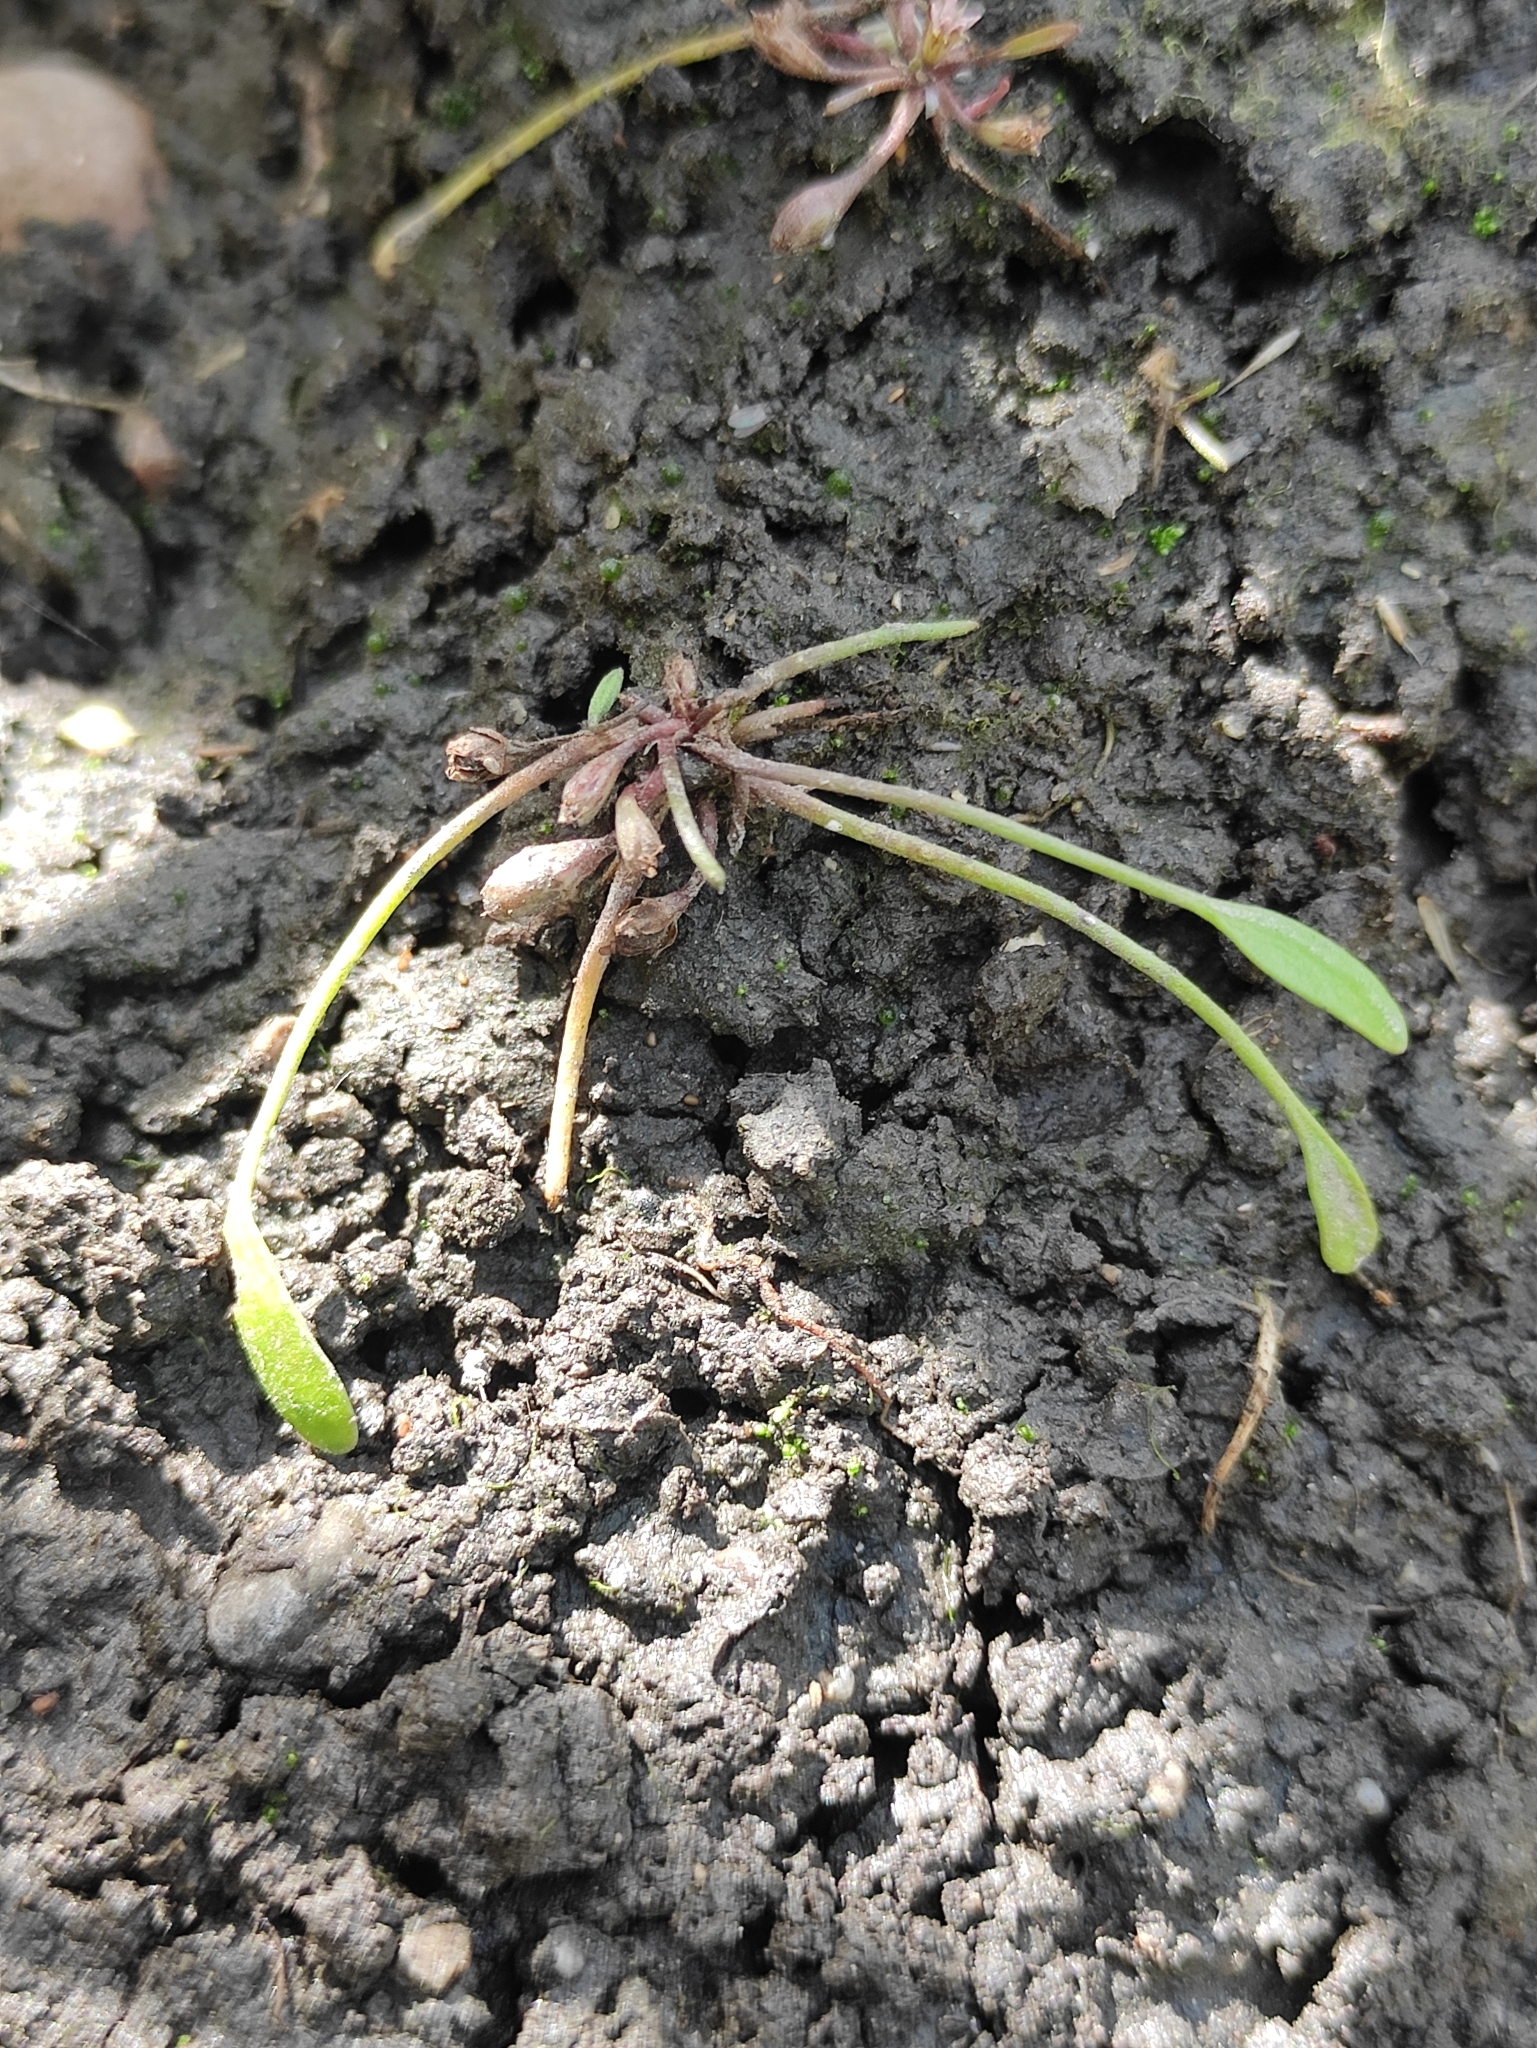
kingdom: Plantae
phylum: Tracheophyta
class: Magnoliopsida
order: Lamiales
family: Scrophulariaceae
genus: Limosella
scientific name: Limosella aquatica
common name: Mudwort
